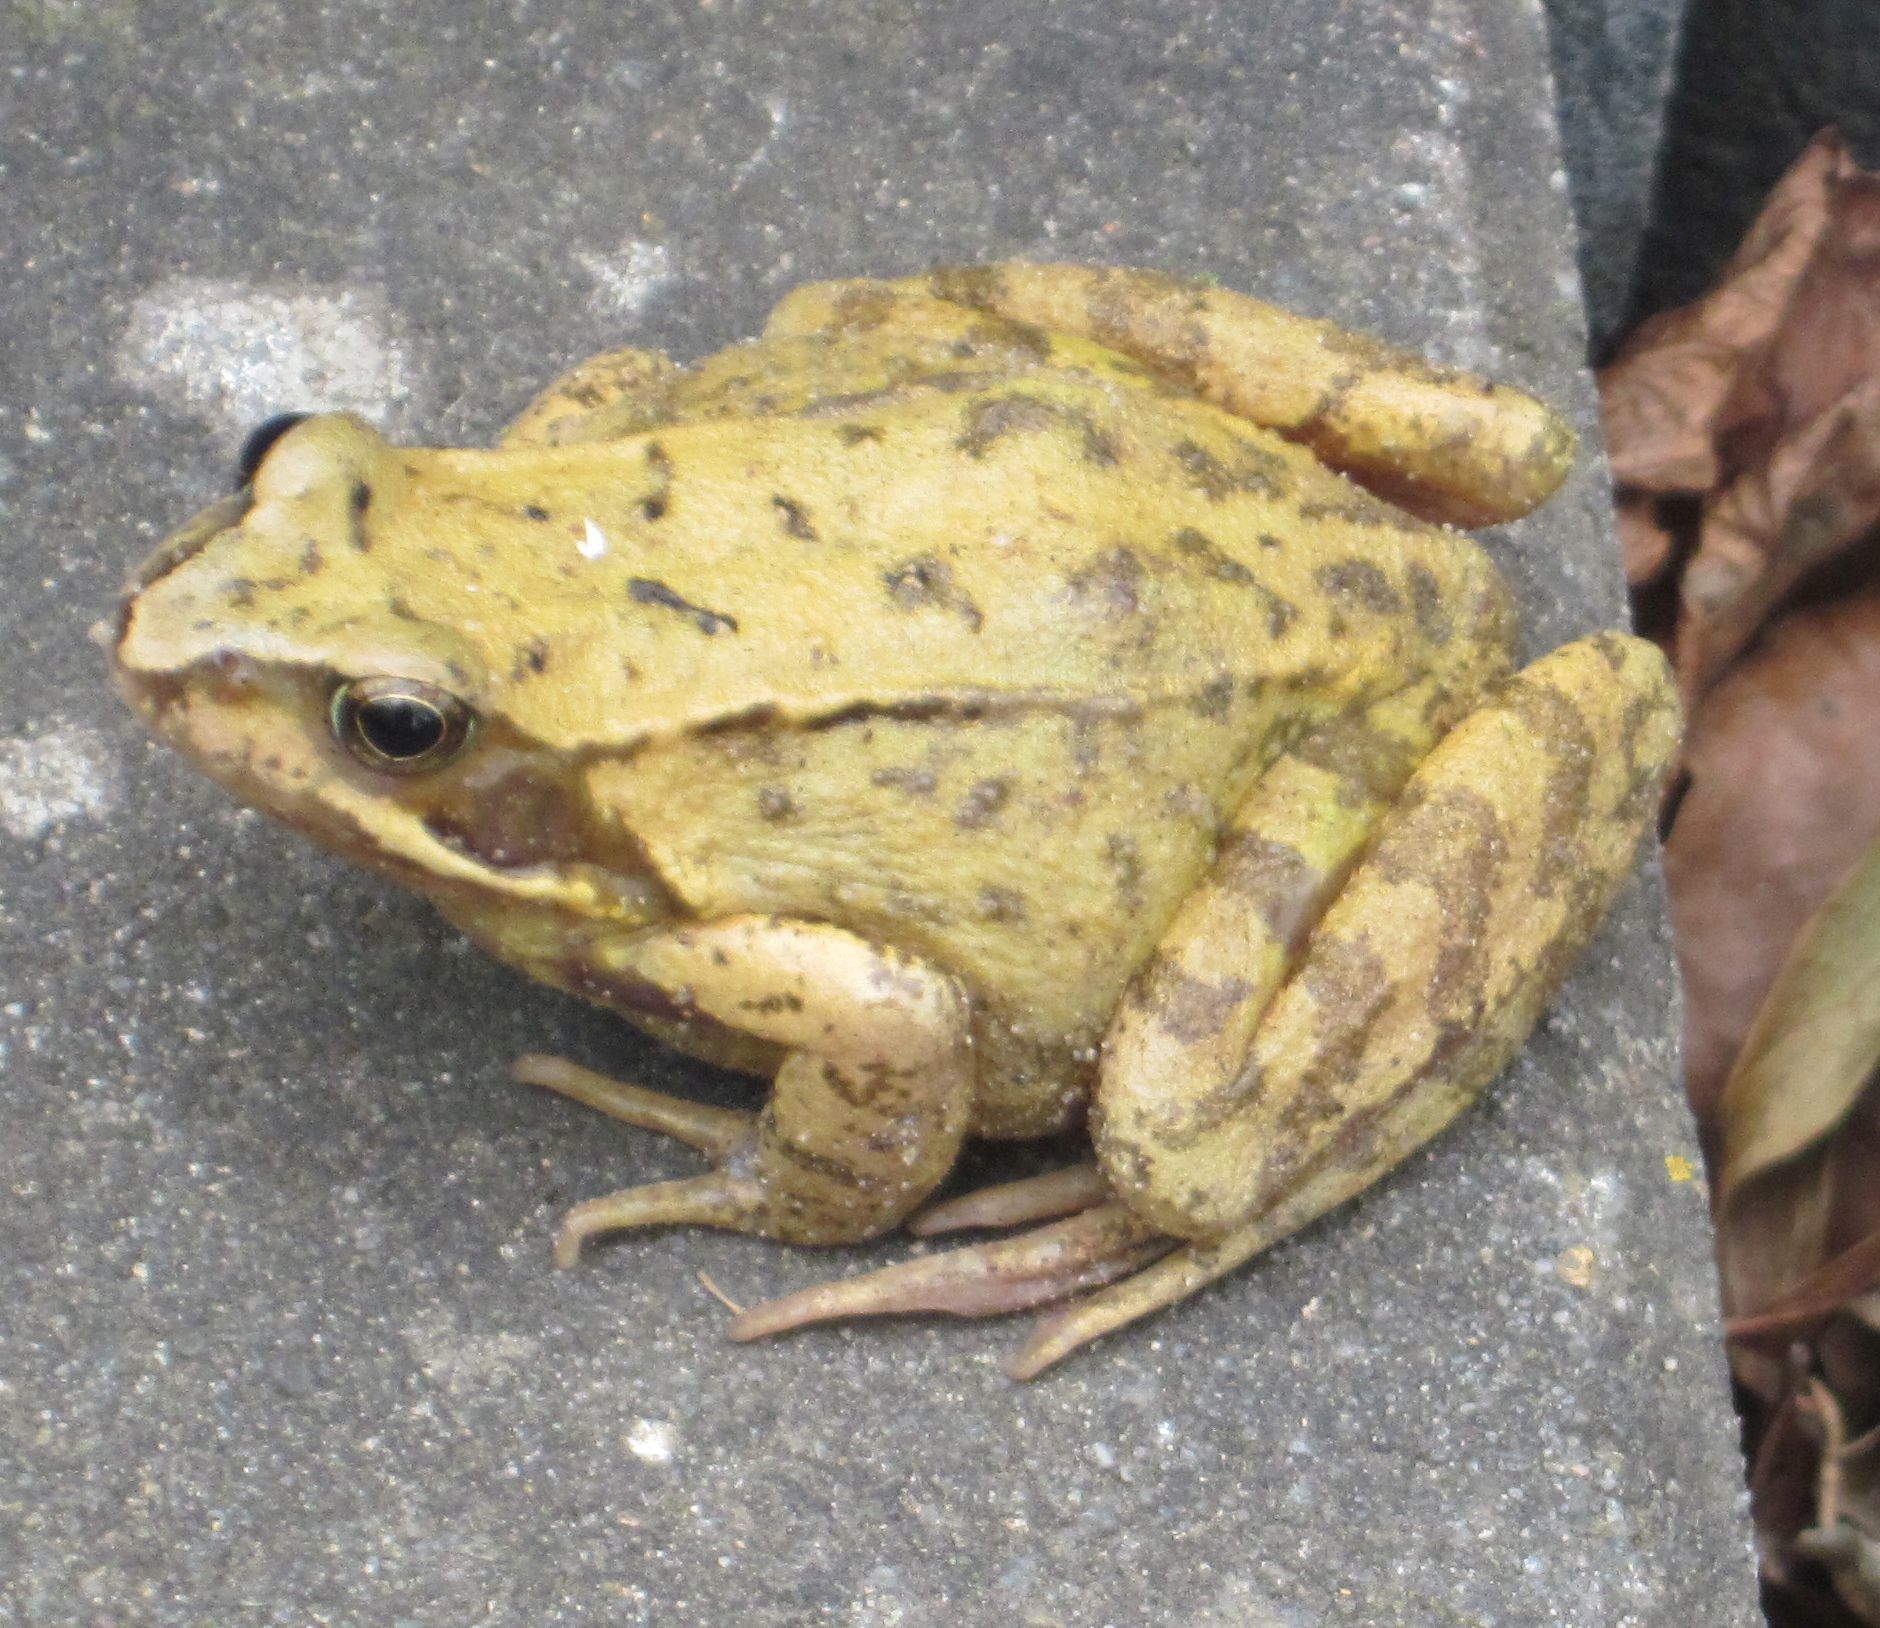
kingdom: Animalia
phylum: Chordata
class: Amphibia
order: Anura
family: Ranidae
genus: Rana
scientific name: Rana temporaria
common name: Common frog
